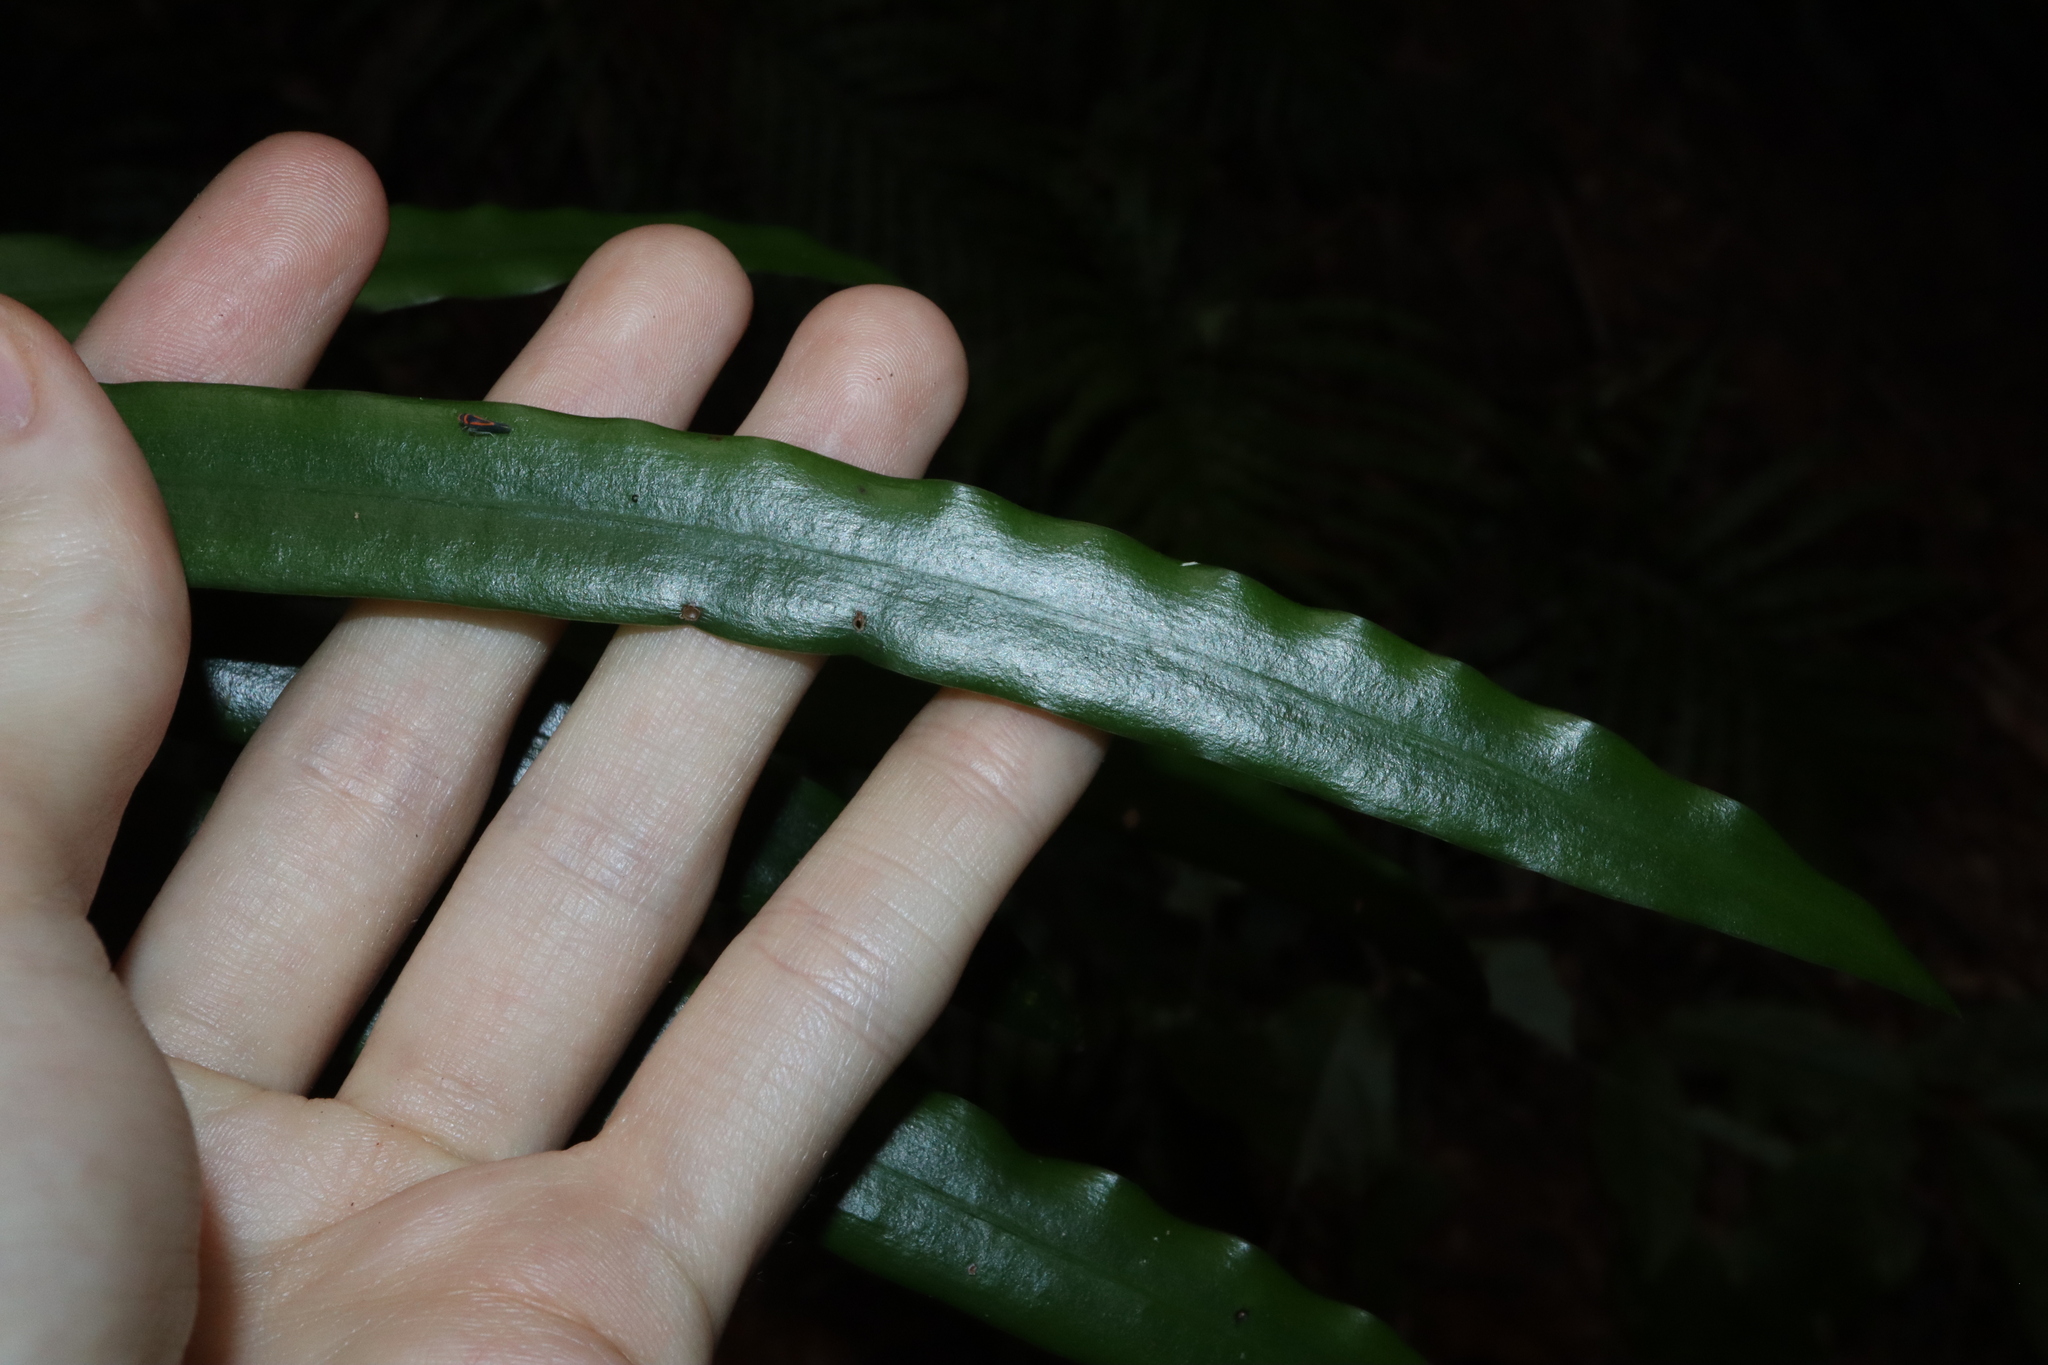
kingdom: Plantae
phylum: Tracheophyta
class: Pinopsida
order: Pinales
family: Podocarpaceae
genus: Podocarpus
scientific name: Podocarpus grayae
